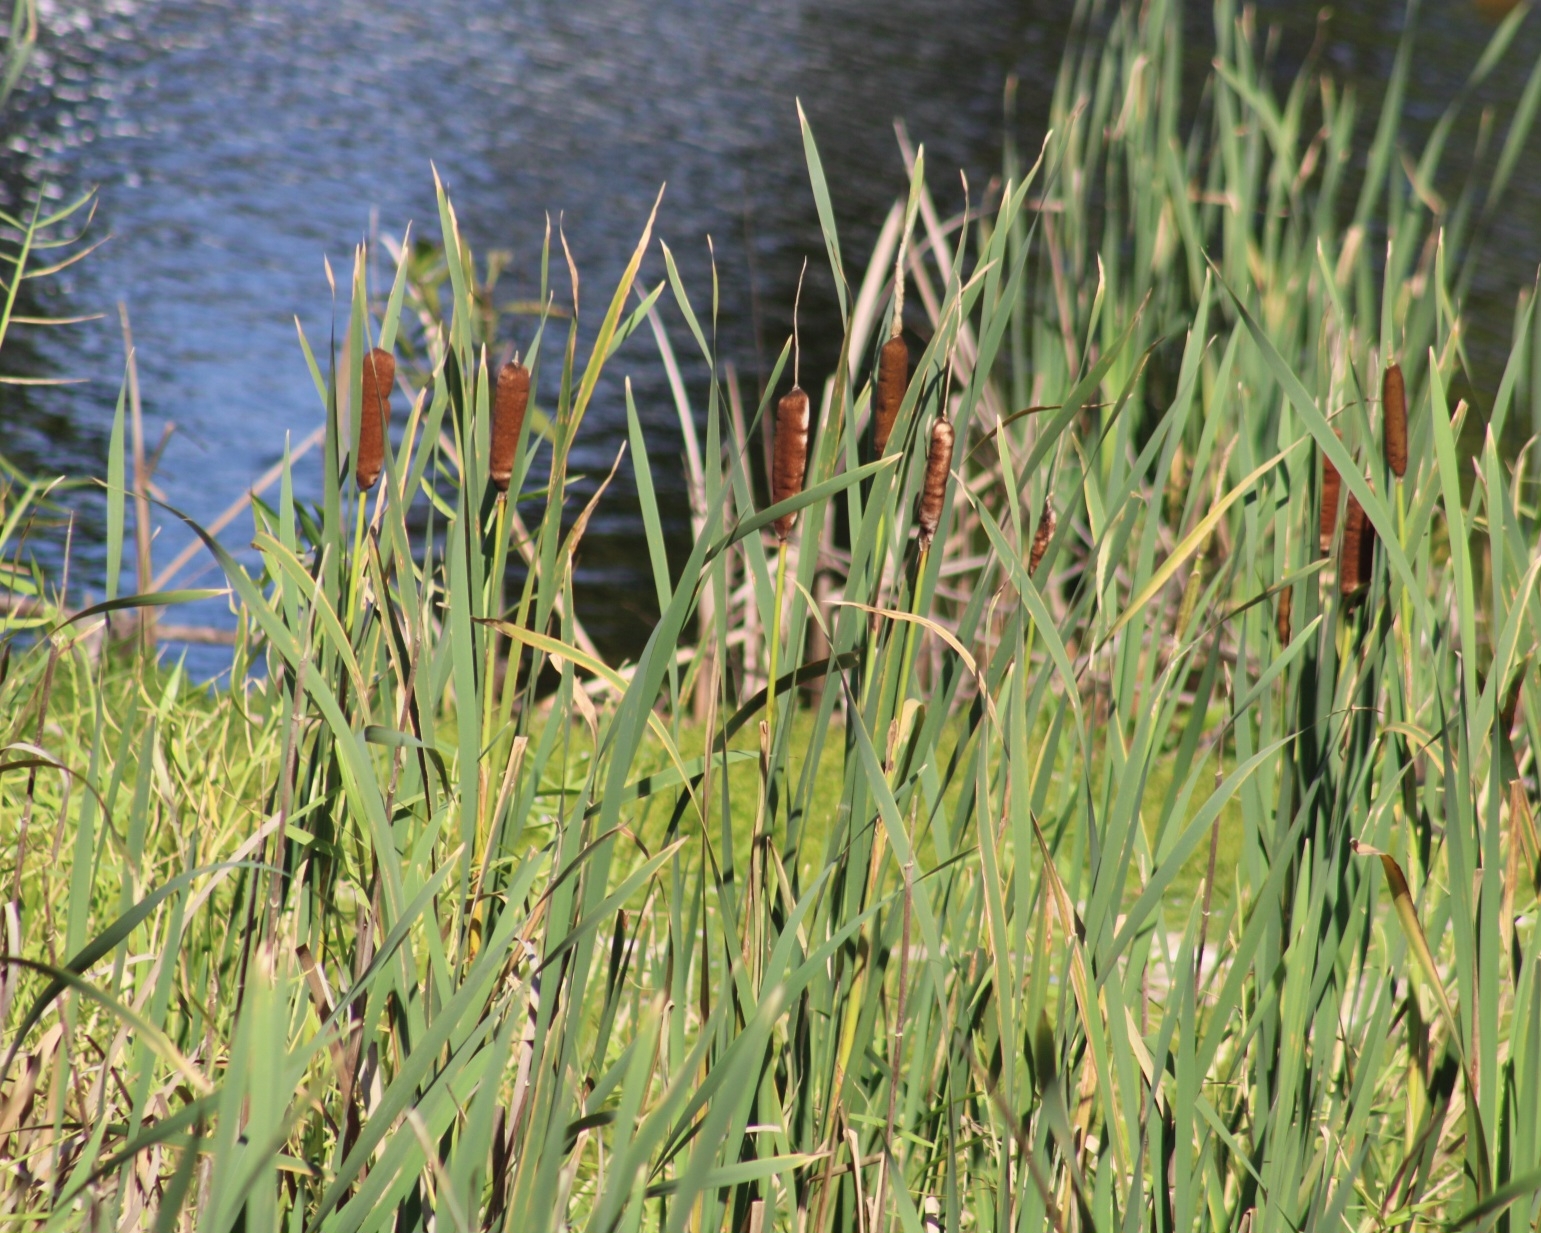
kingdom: Plantae
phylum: Tracheophyta
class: Liliopsida
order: Poales
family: Typhaceae
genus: Typha
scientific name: Typha latifolia
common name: Broadleaf cattail
